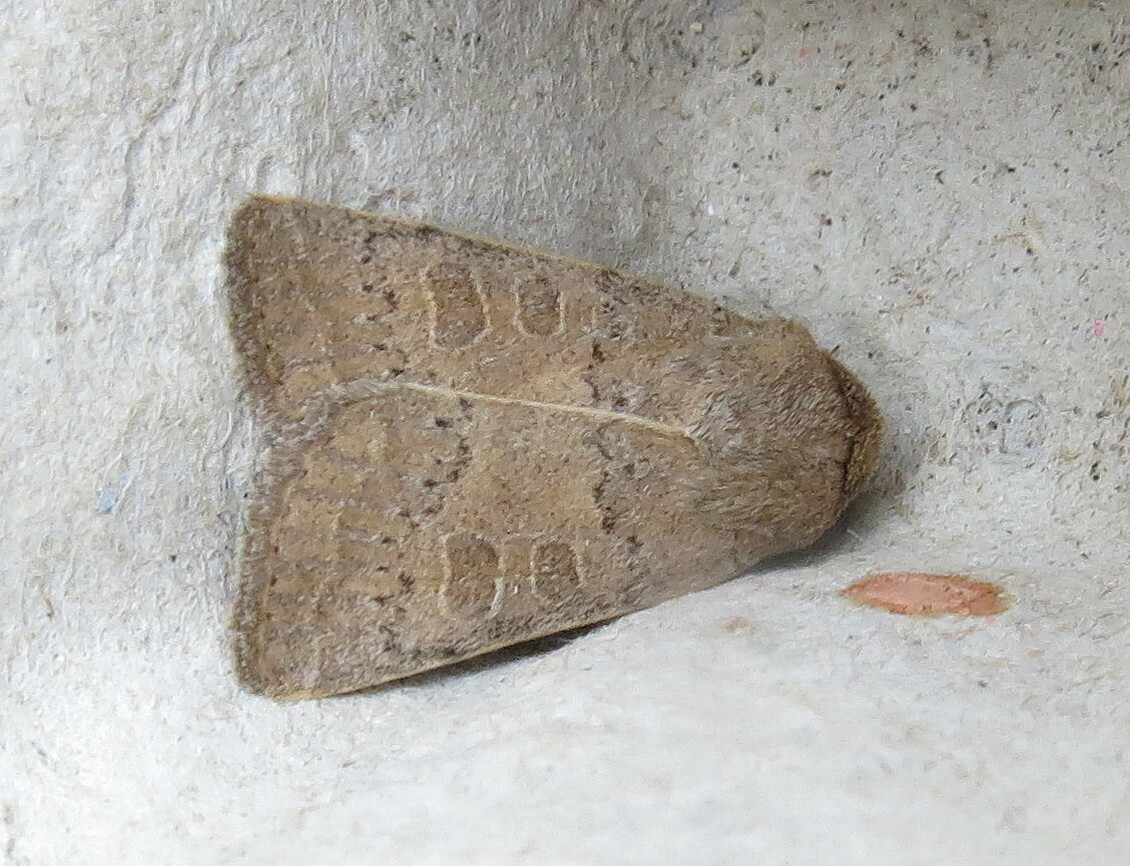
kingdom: Animalia
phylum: Arthropoda
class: Insecta
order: Lepidoptera
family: Noctuidae
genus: Hoplodrina
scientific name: Hoplodrina ambigua
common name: Vine's rustic
